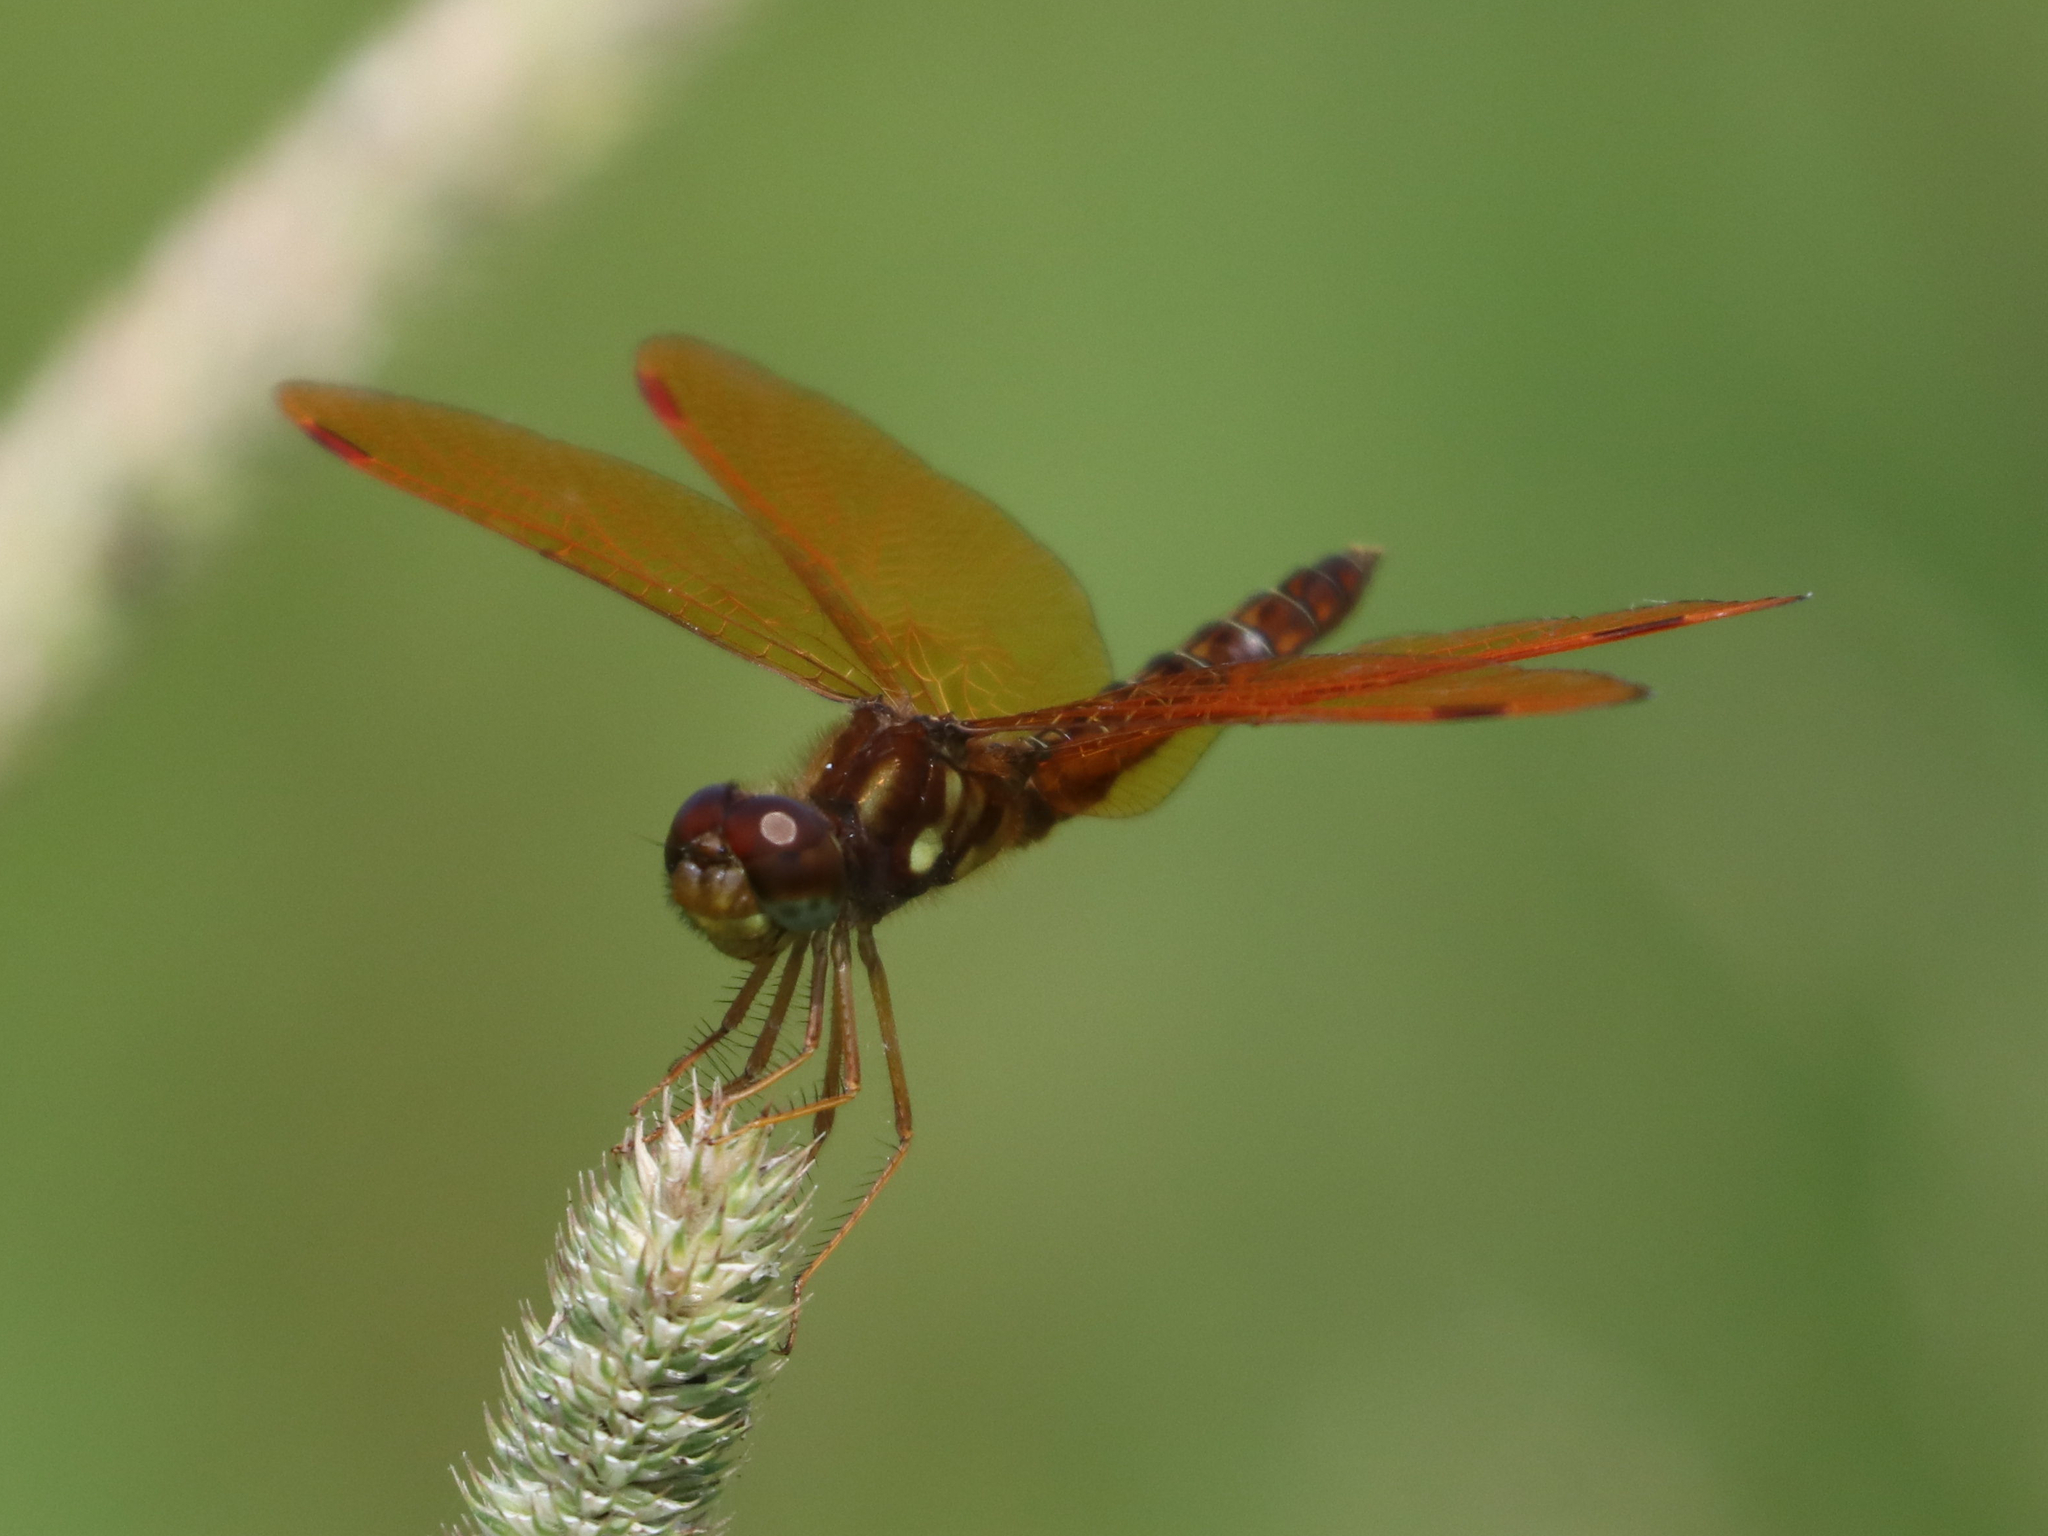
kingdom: Animalia
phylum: Arthropoda
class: Insecta
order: Odonata
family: Libellulidae
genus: Perithemis
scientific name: Perithemis tenera
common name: Eastern amberwing
